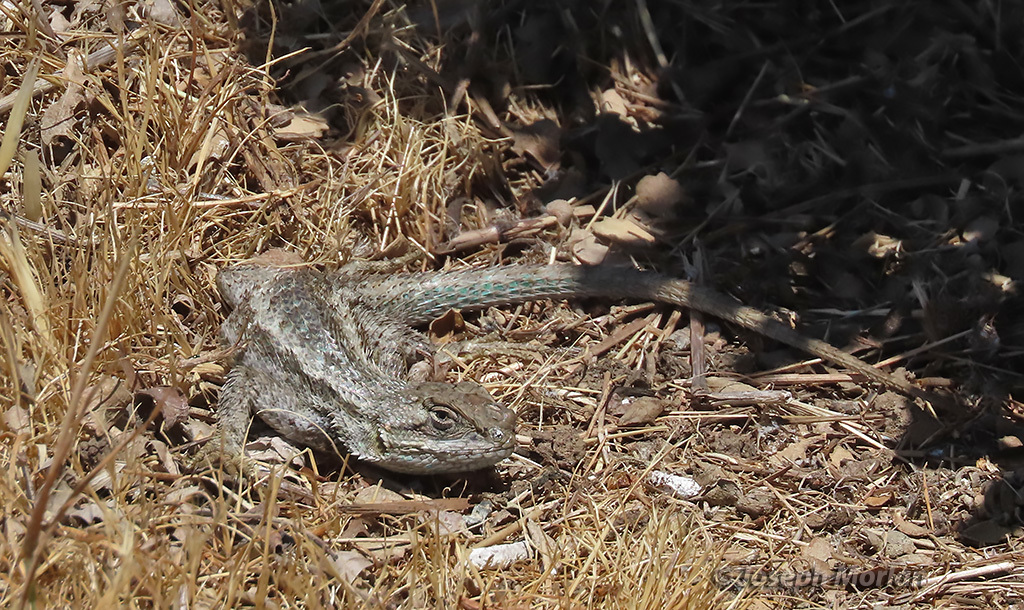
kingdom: Animalia
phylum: Chordata
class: Squamata
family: Phrynosomatidae
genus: Sceloporus
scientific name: Sceloporus occidentalis
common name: Western fence lizard
